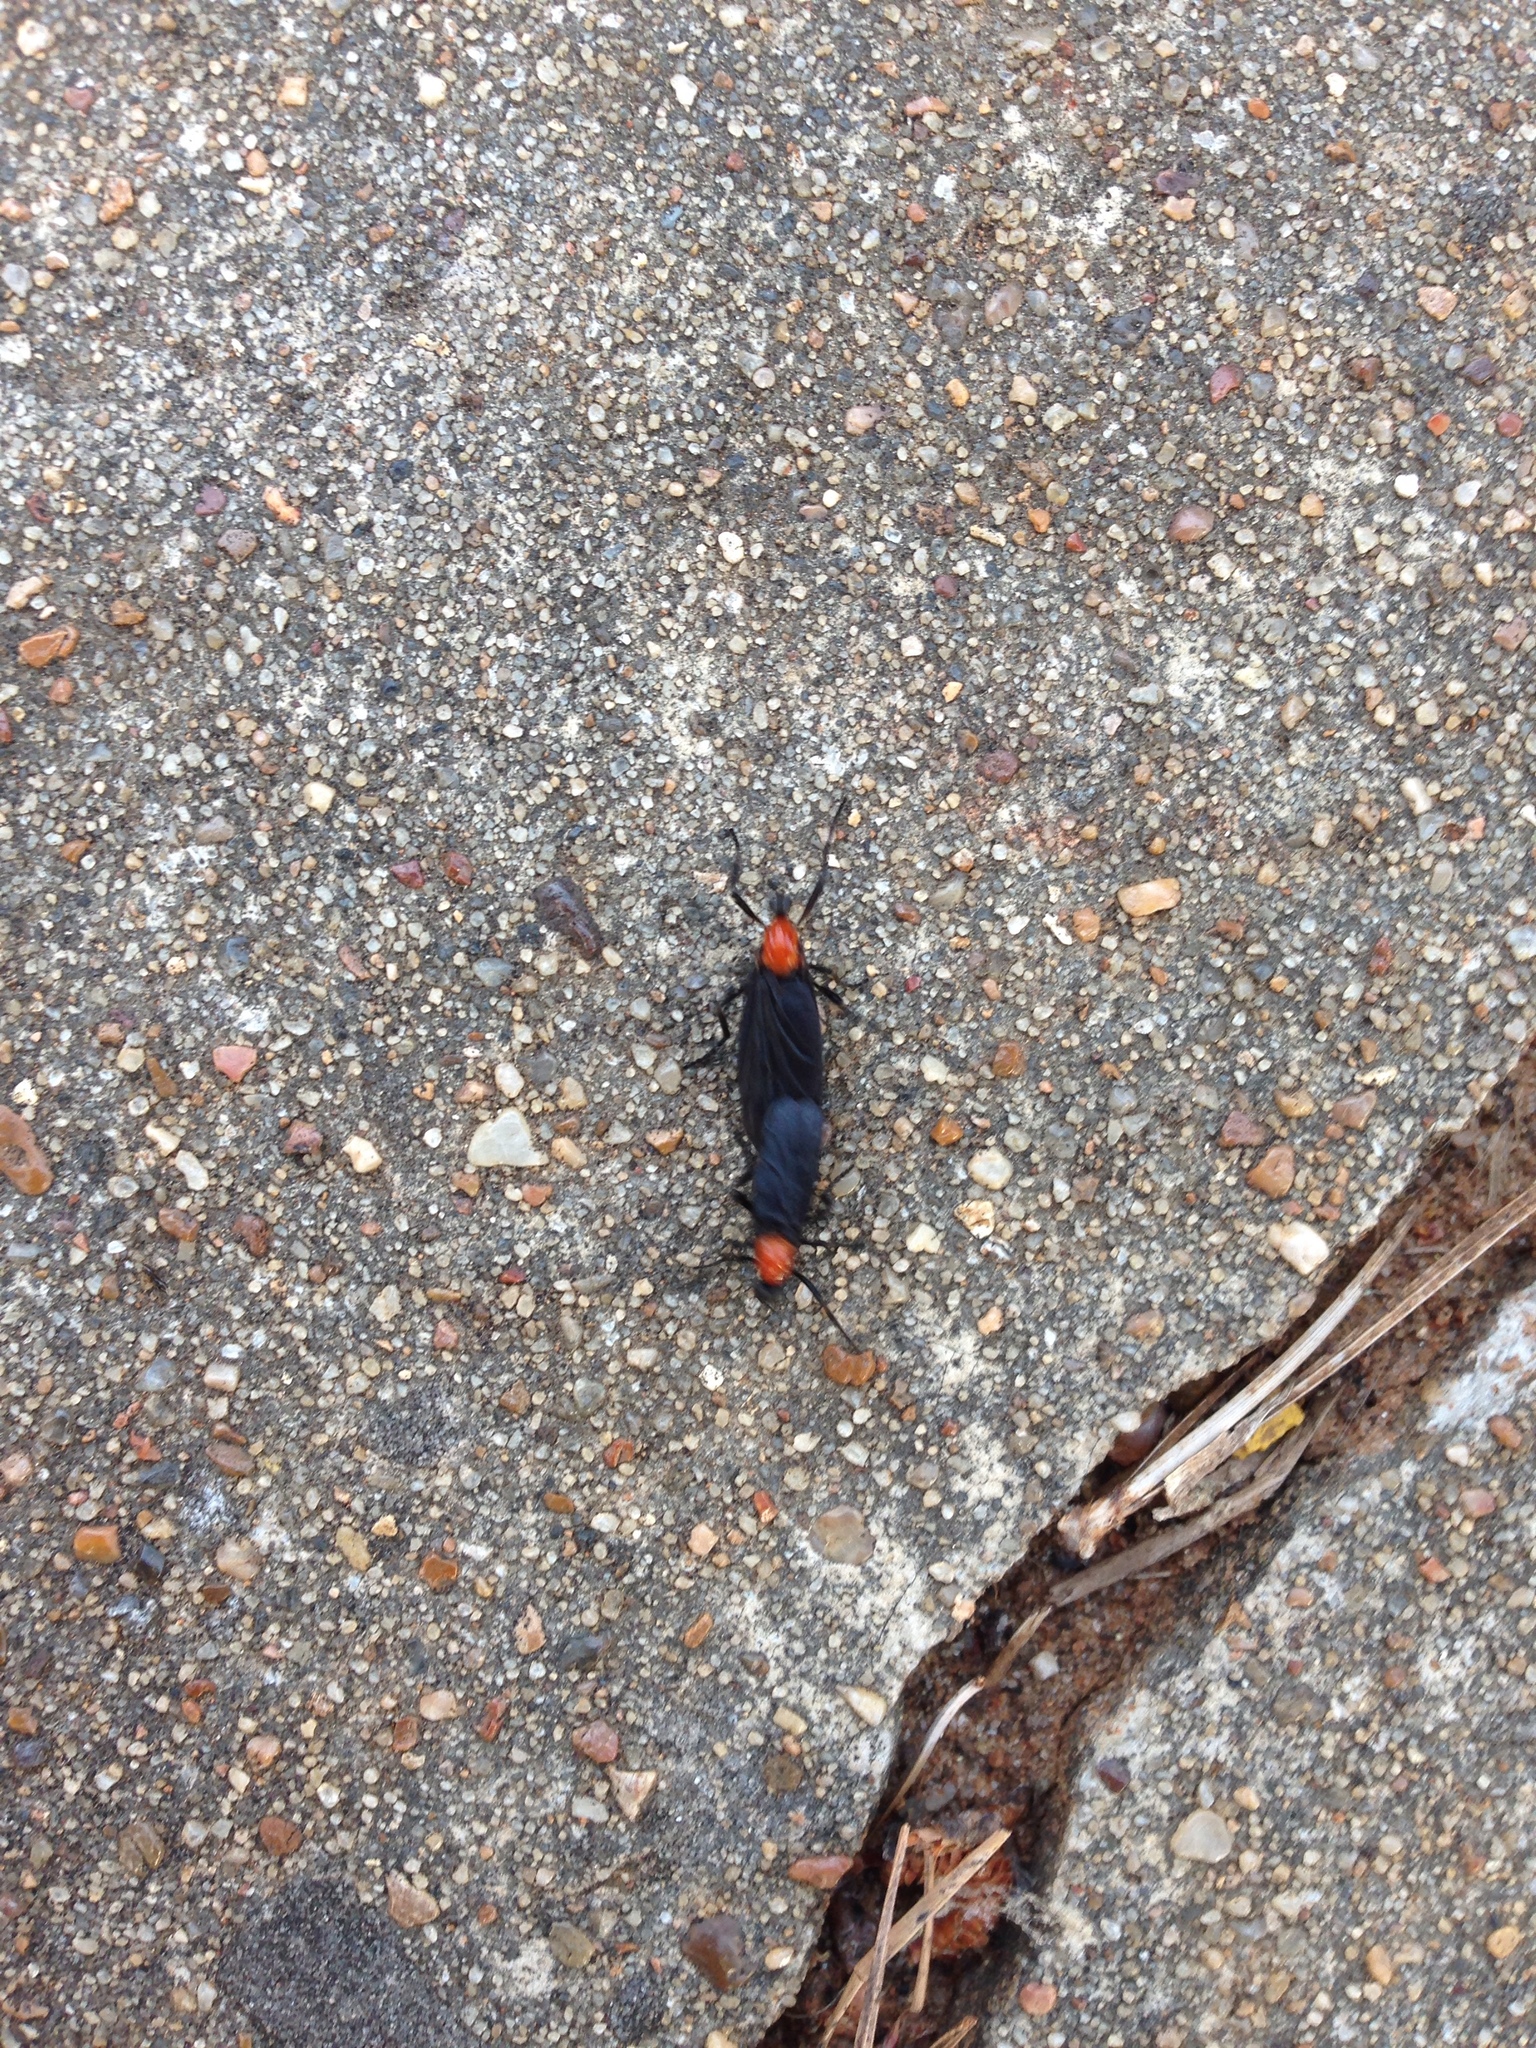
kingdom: Animalia
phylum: Arthropoda
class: Insecta
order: Diptera
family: Bibionidae
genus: Plecia
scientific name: Plecia nearctica
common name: March fly
